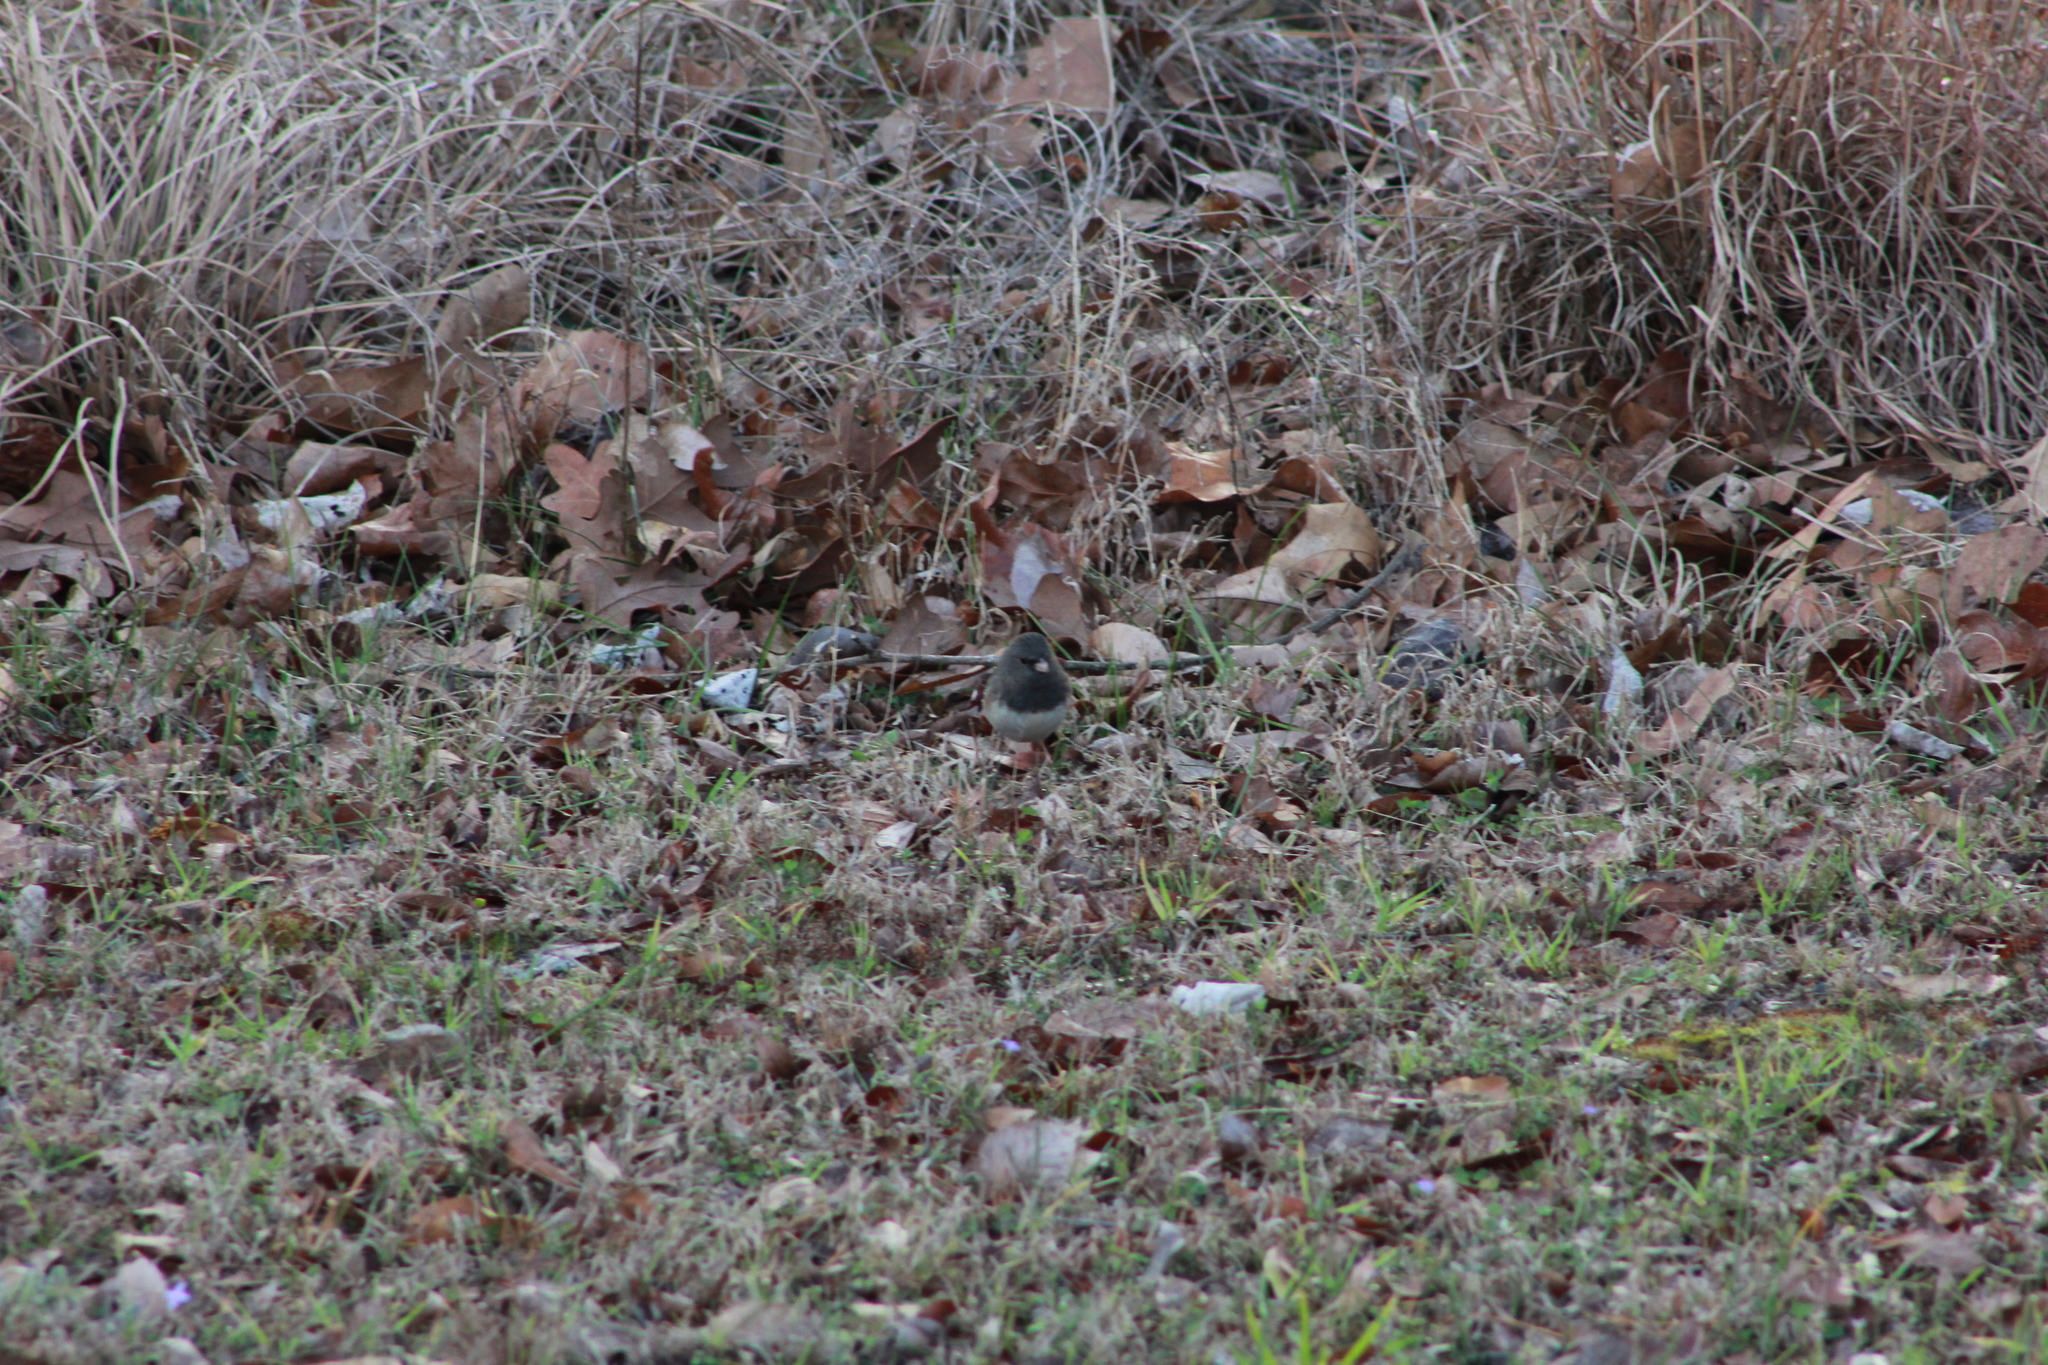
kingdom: Animalia
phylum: Chordata
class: Aves
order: Passeriformes
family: Passerellidae
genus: Junco
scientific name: Junco hyemalis
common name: Dark-eyed junco
